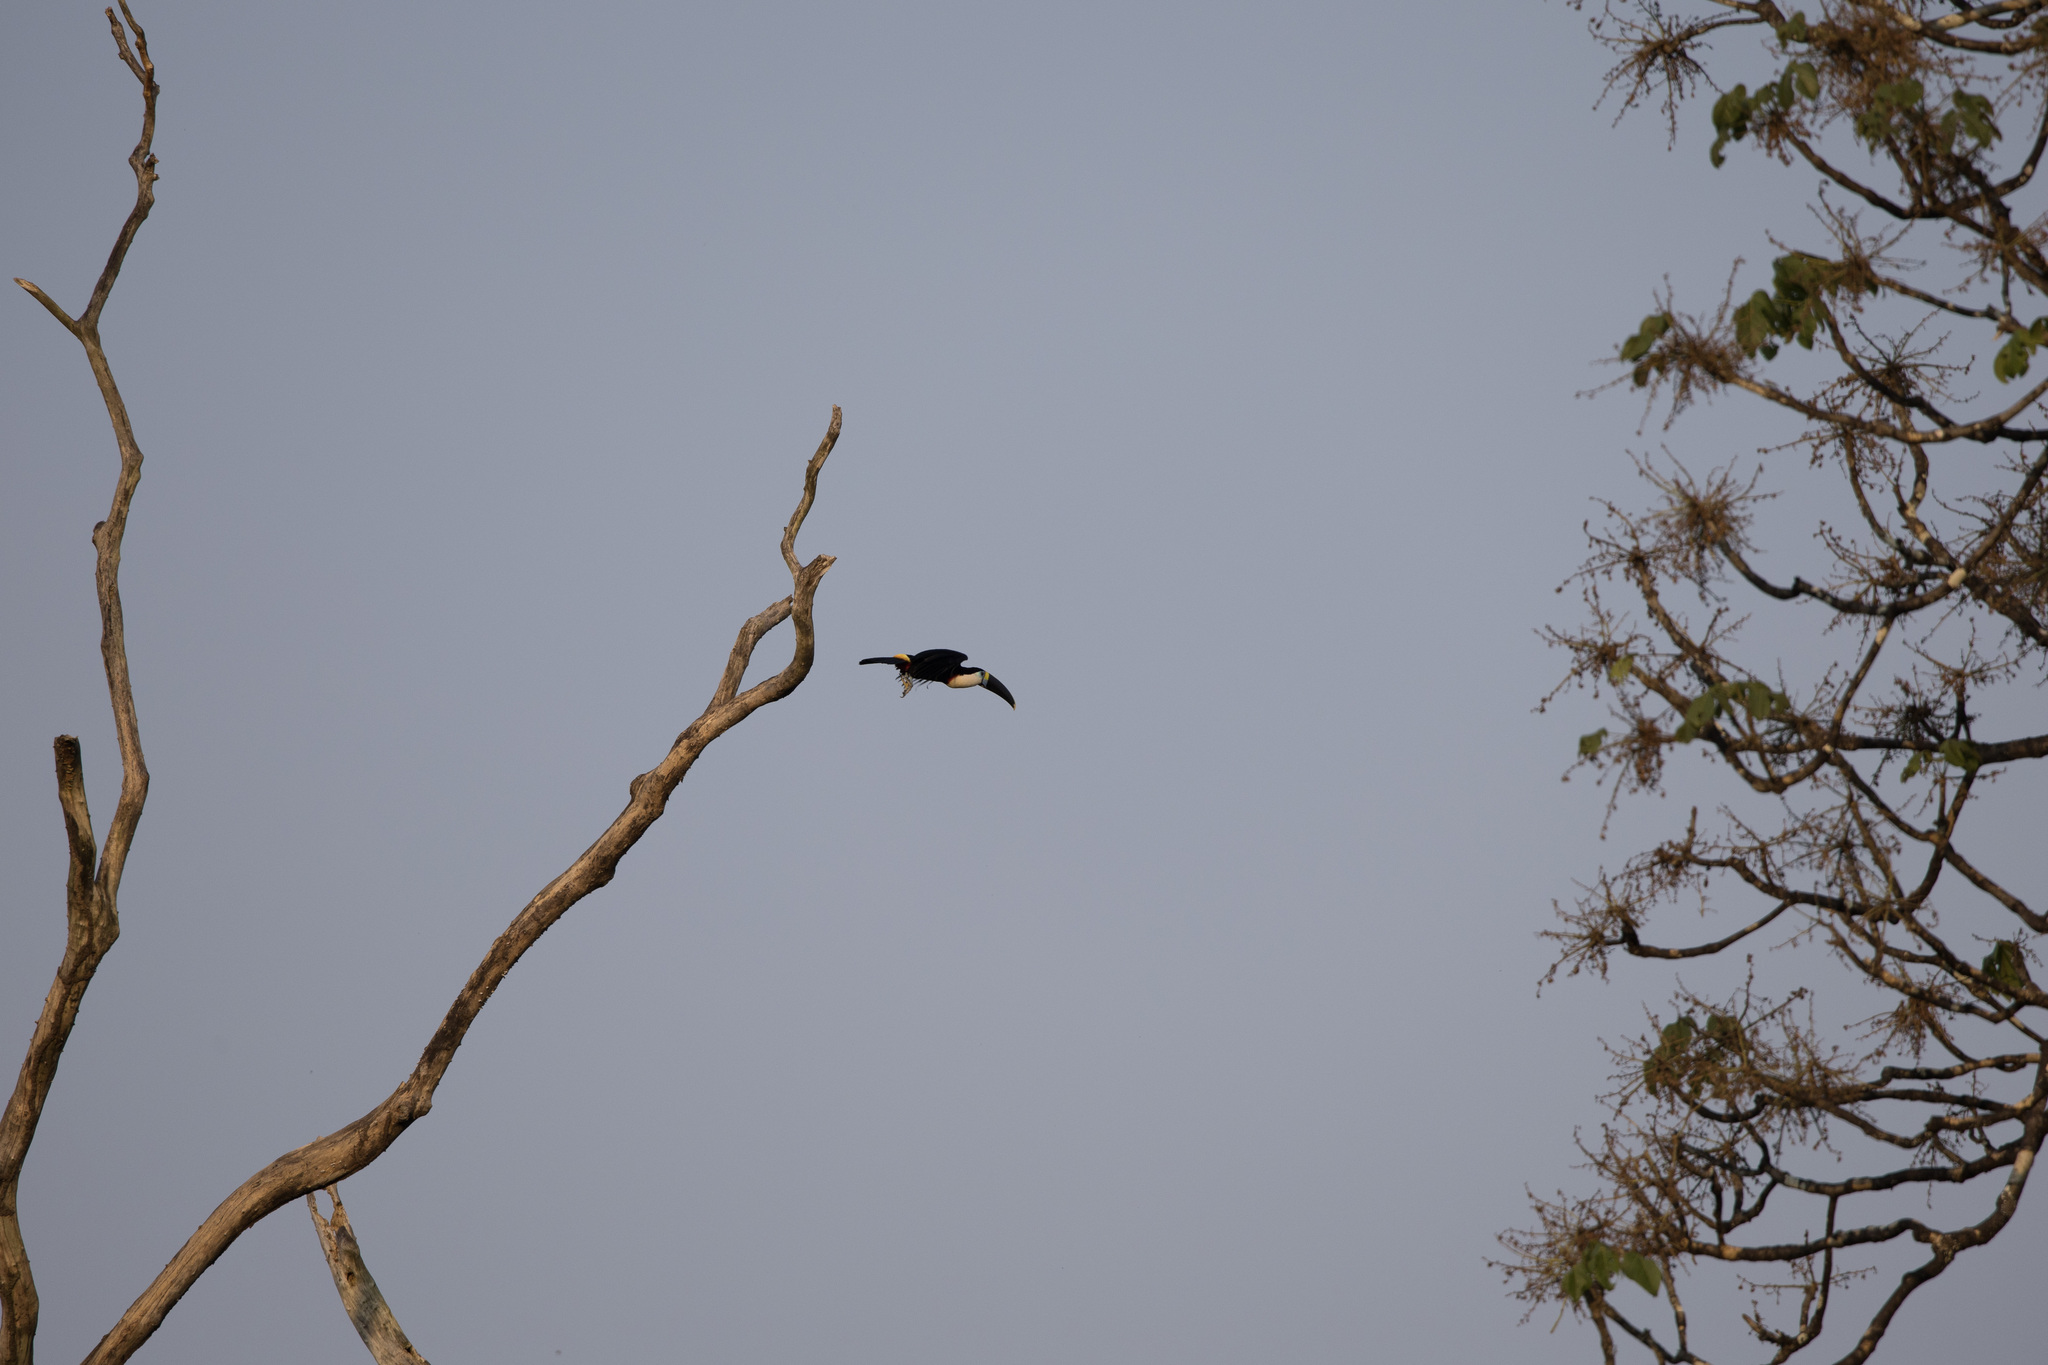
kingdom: Animalia
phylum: Chordata
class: Aves
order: Piciformes
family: Ramphastidae
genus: Ramphastos
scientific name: Ramphastos tucanus
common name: White-throated toucan
